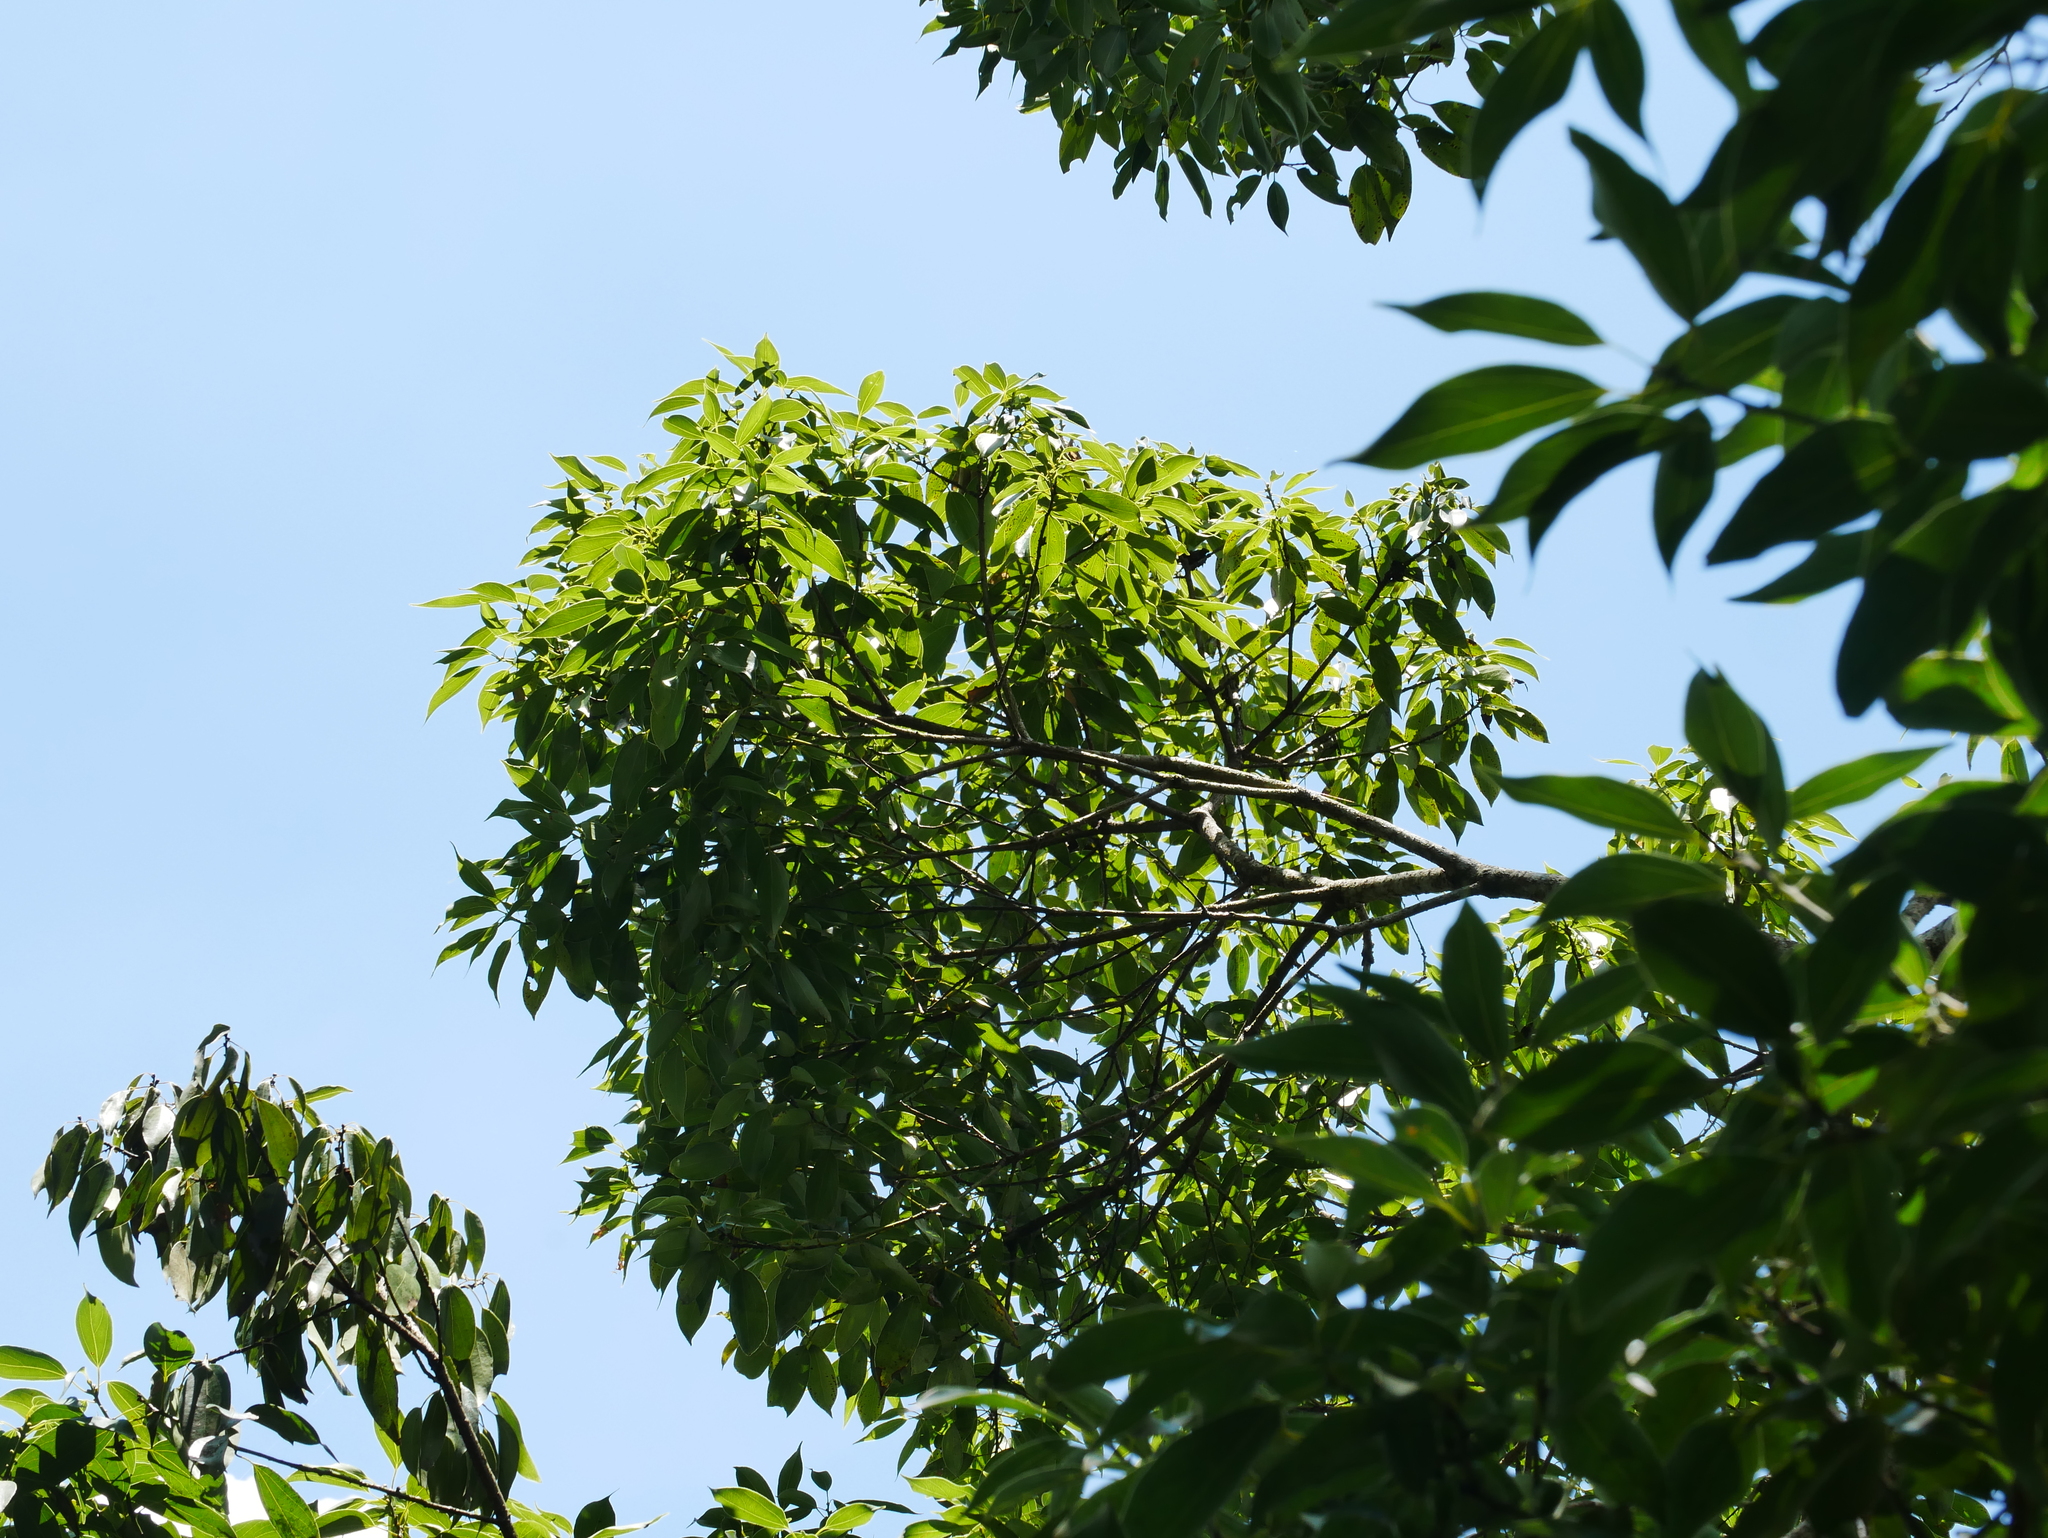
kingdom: Plantae
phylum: Tracheophyta
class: Magnoliopsida
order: Laurales
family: Lauraceae
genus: Neolitsea
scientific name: Neolitsea parvigemma
